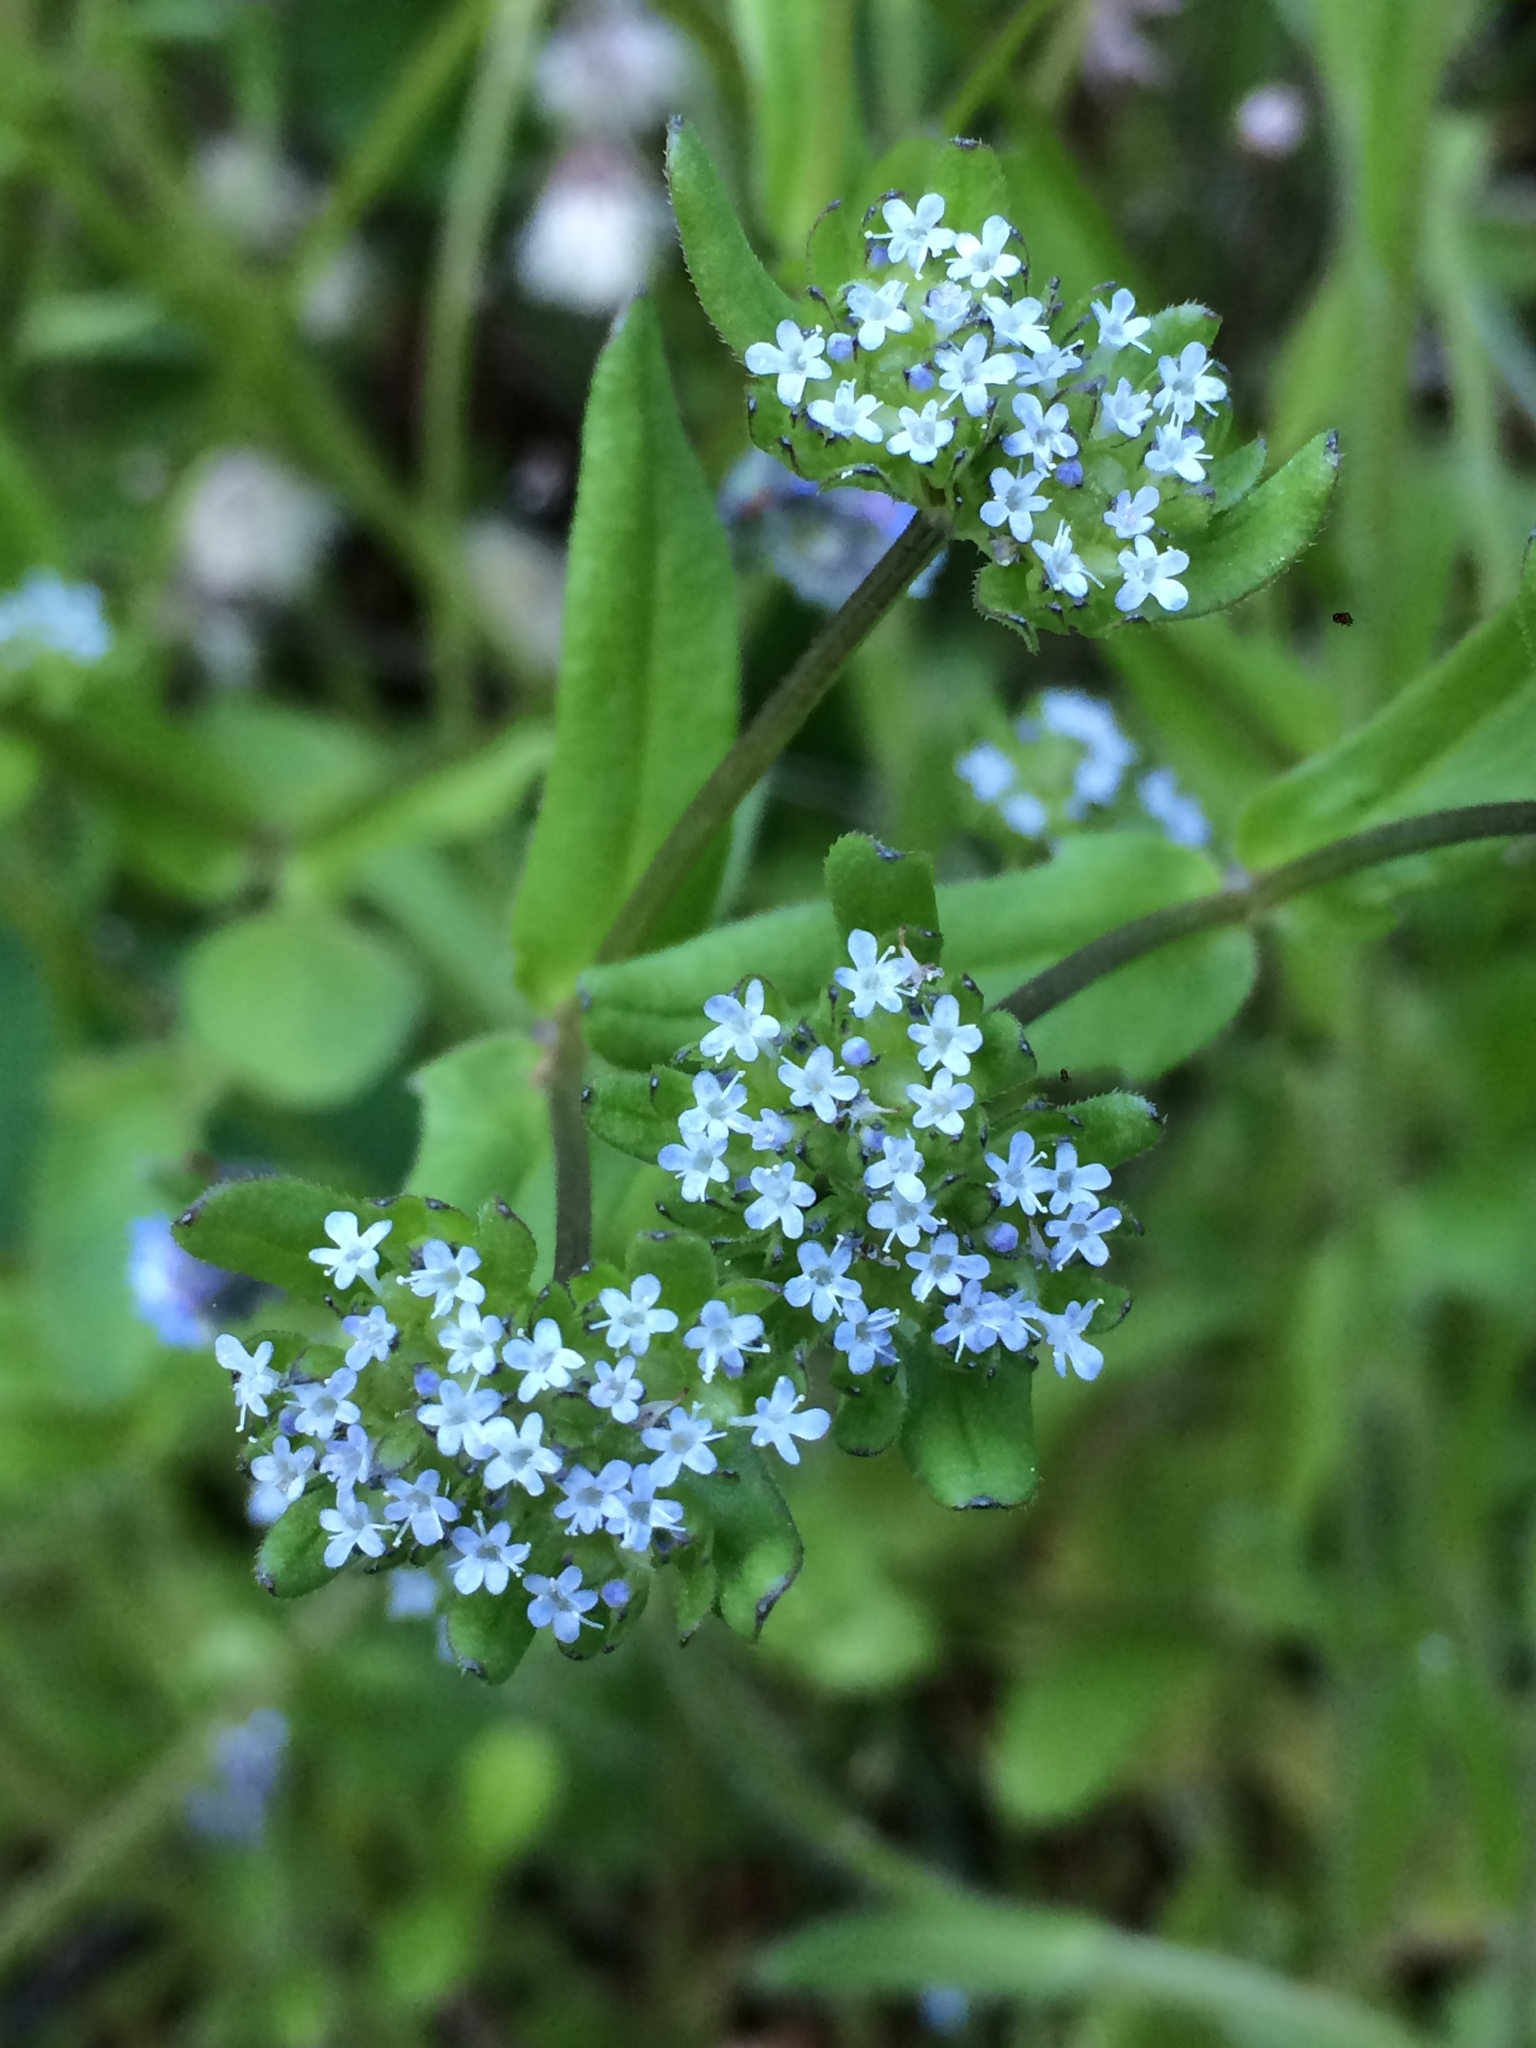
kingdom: Plantae
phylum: Tracheophyta
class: Magnoliopsida
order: Dipsacales
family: Caprifoliaceae
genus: Valerianella
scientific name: Valerianella locusta
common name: Common cornsalad
